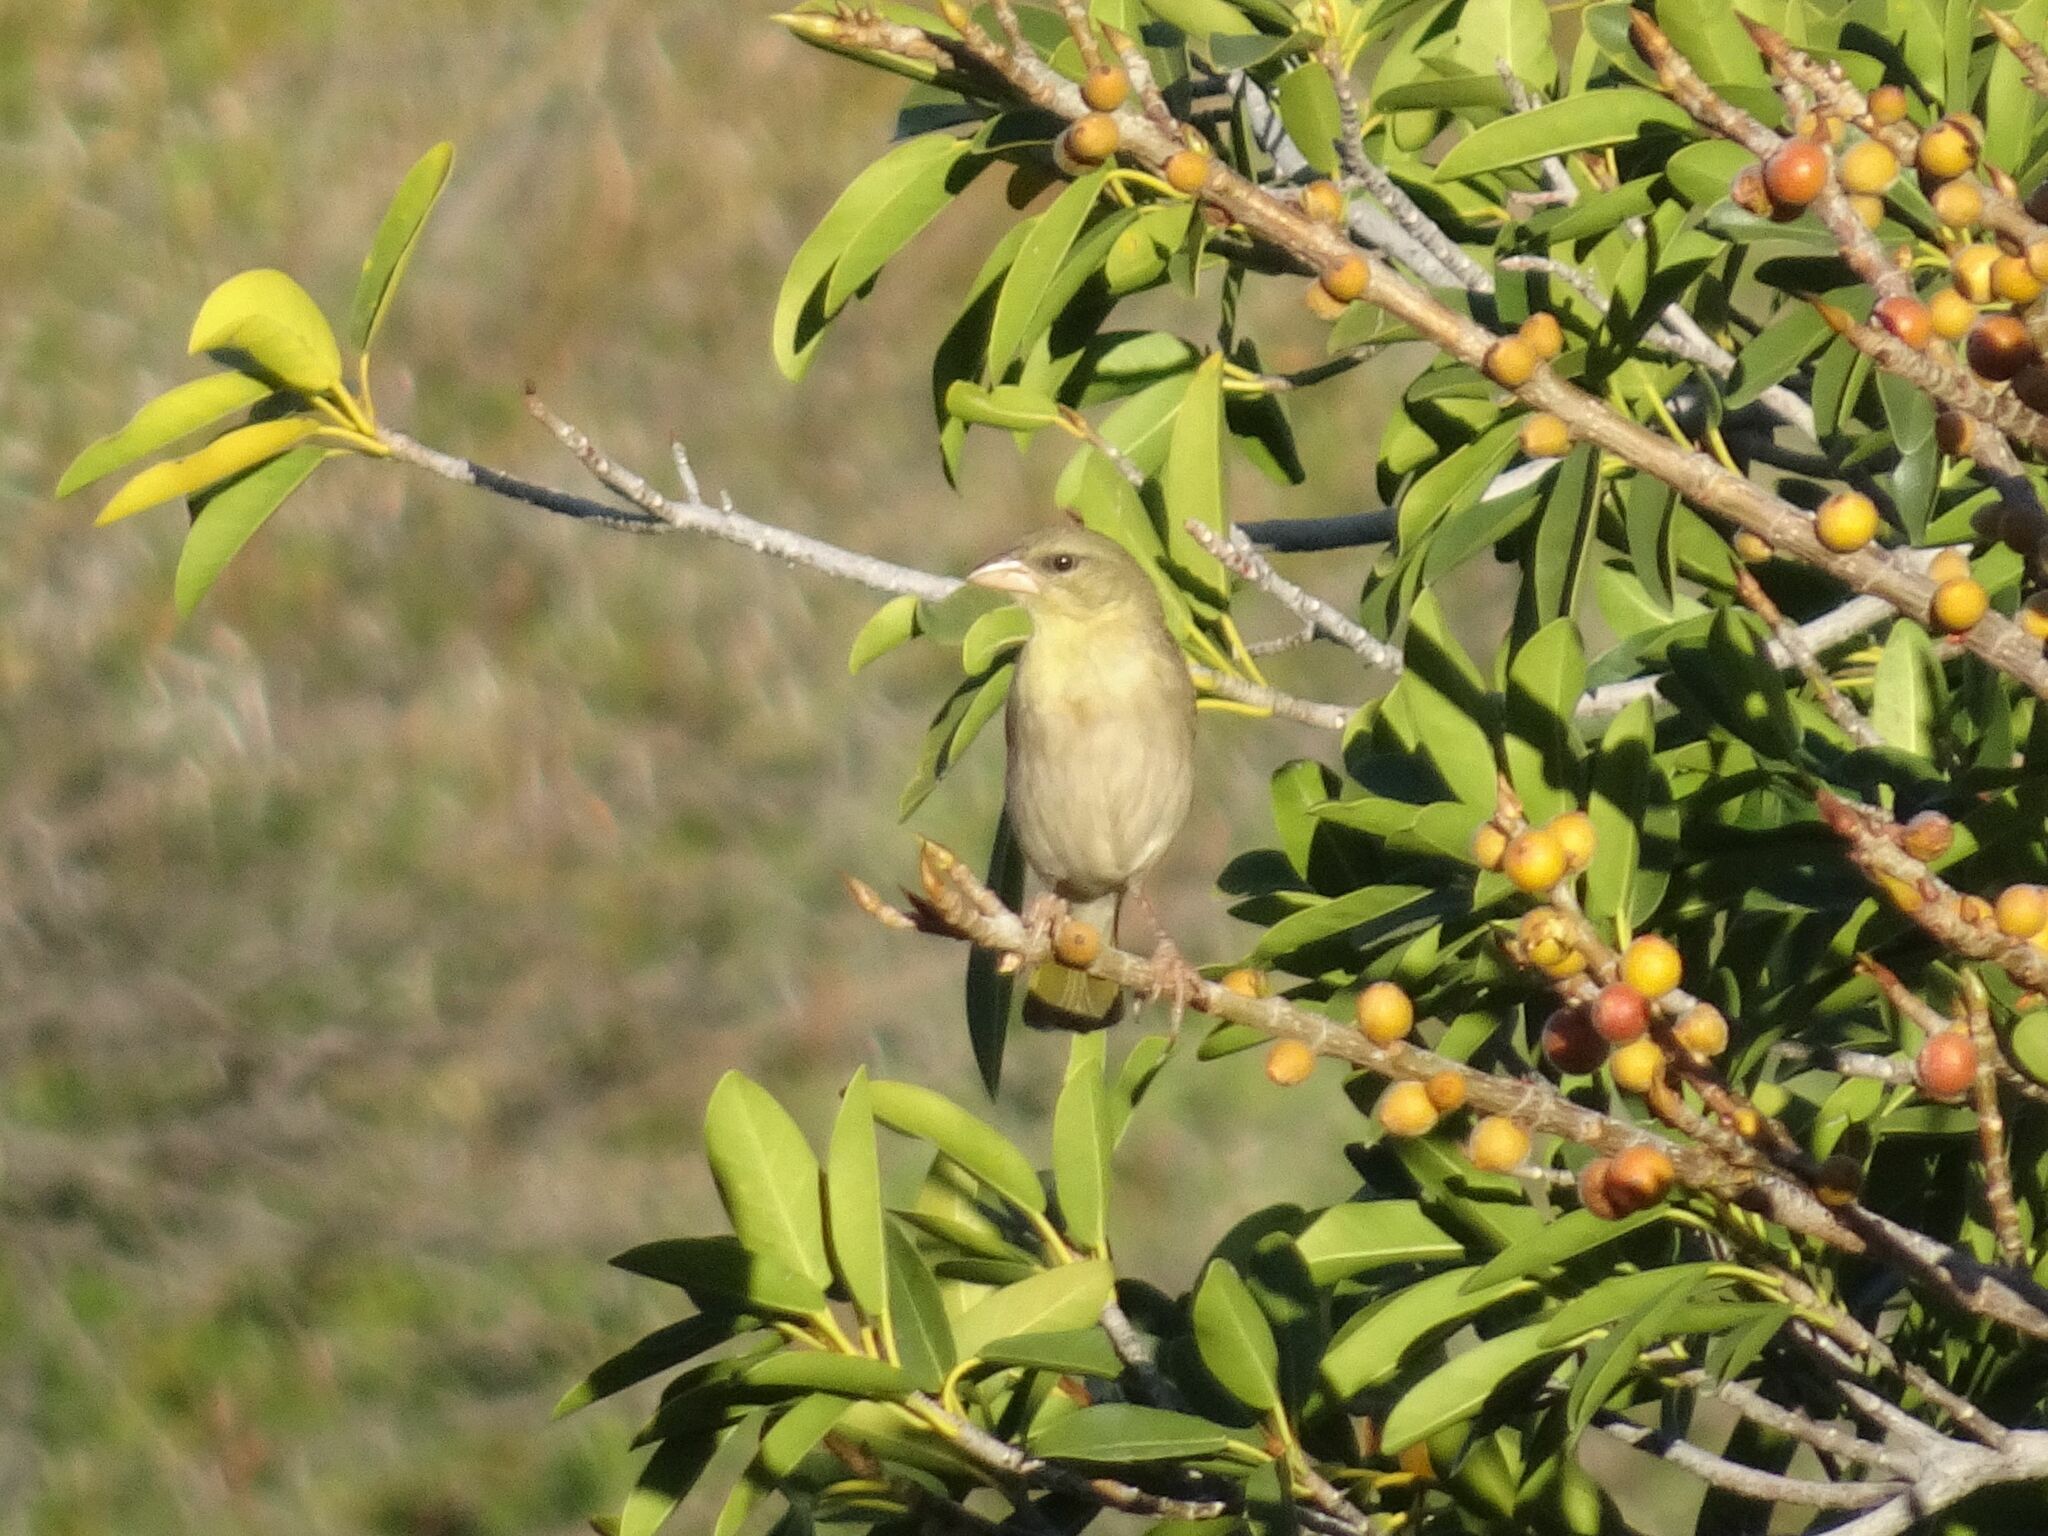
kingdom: Animalia
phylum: Chordata
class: Aves
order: Passeriformes
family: Ploceidae
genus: Ploceus
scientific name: Ploceus velatus
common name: Southern masked weaver
